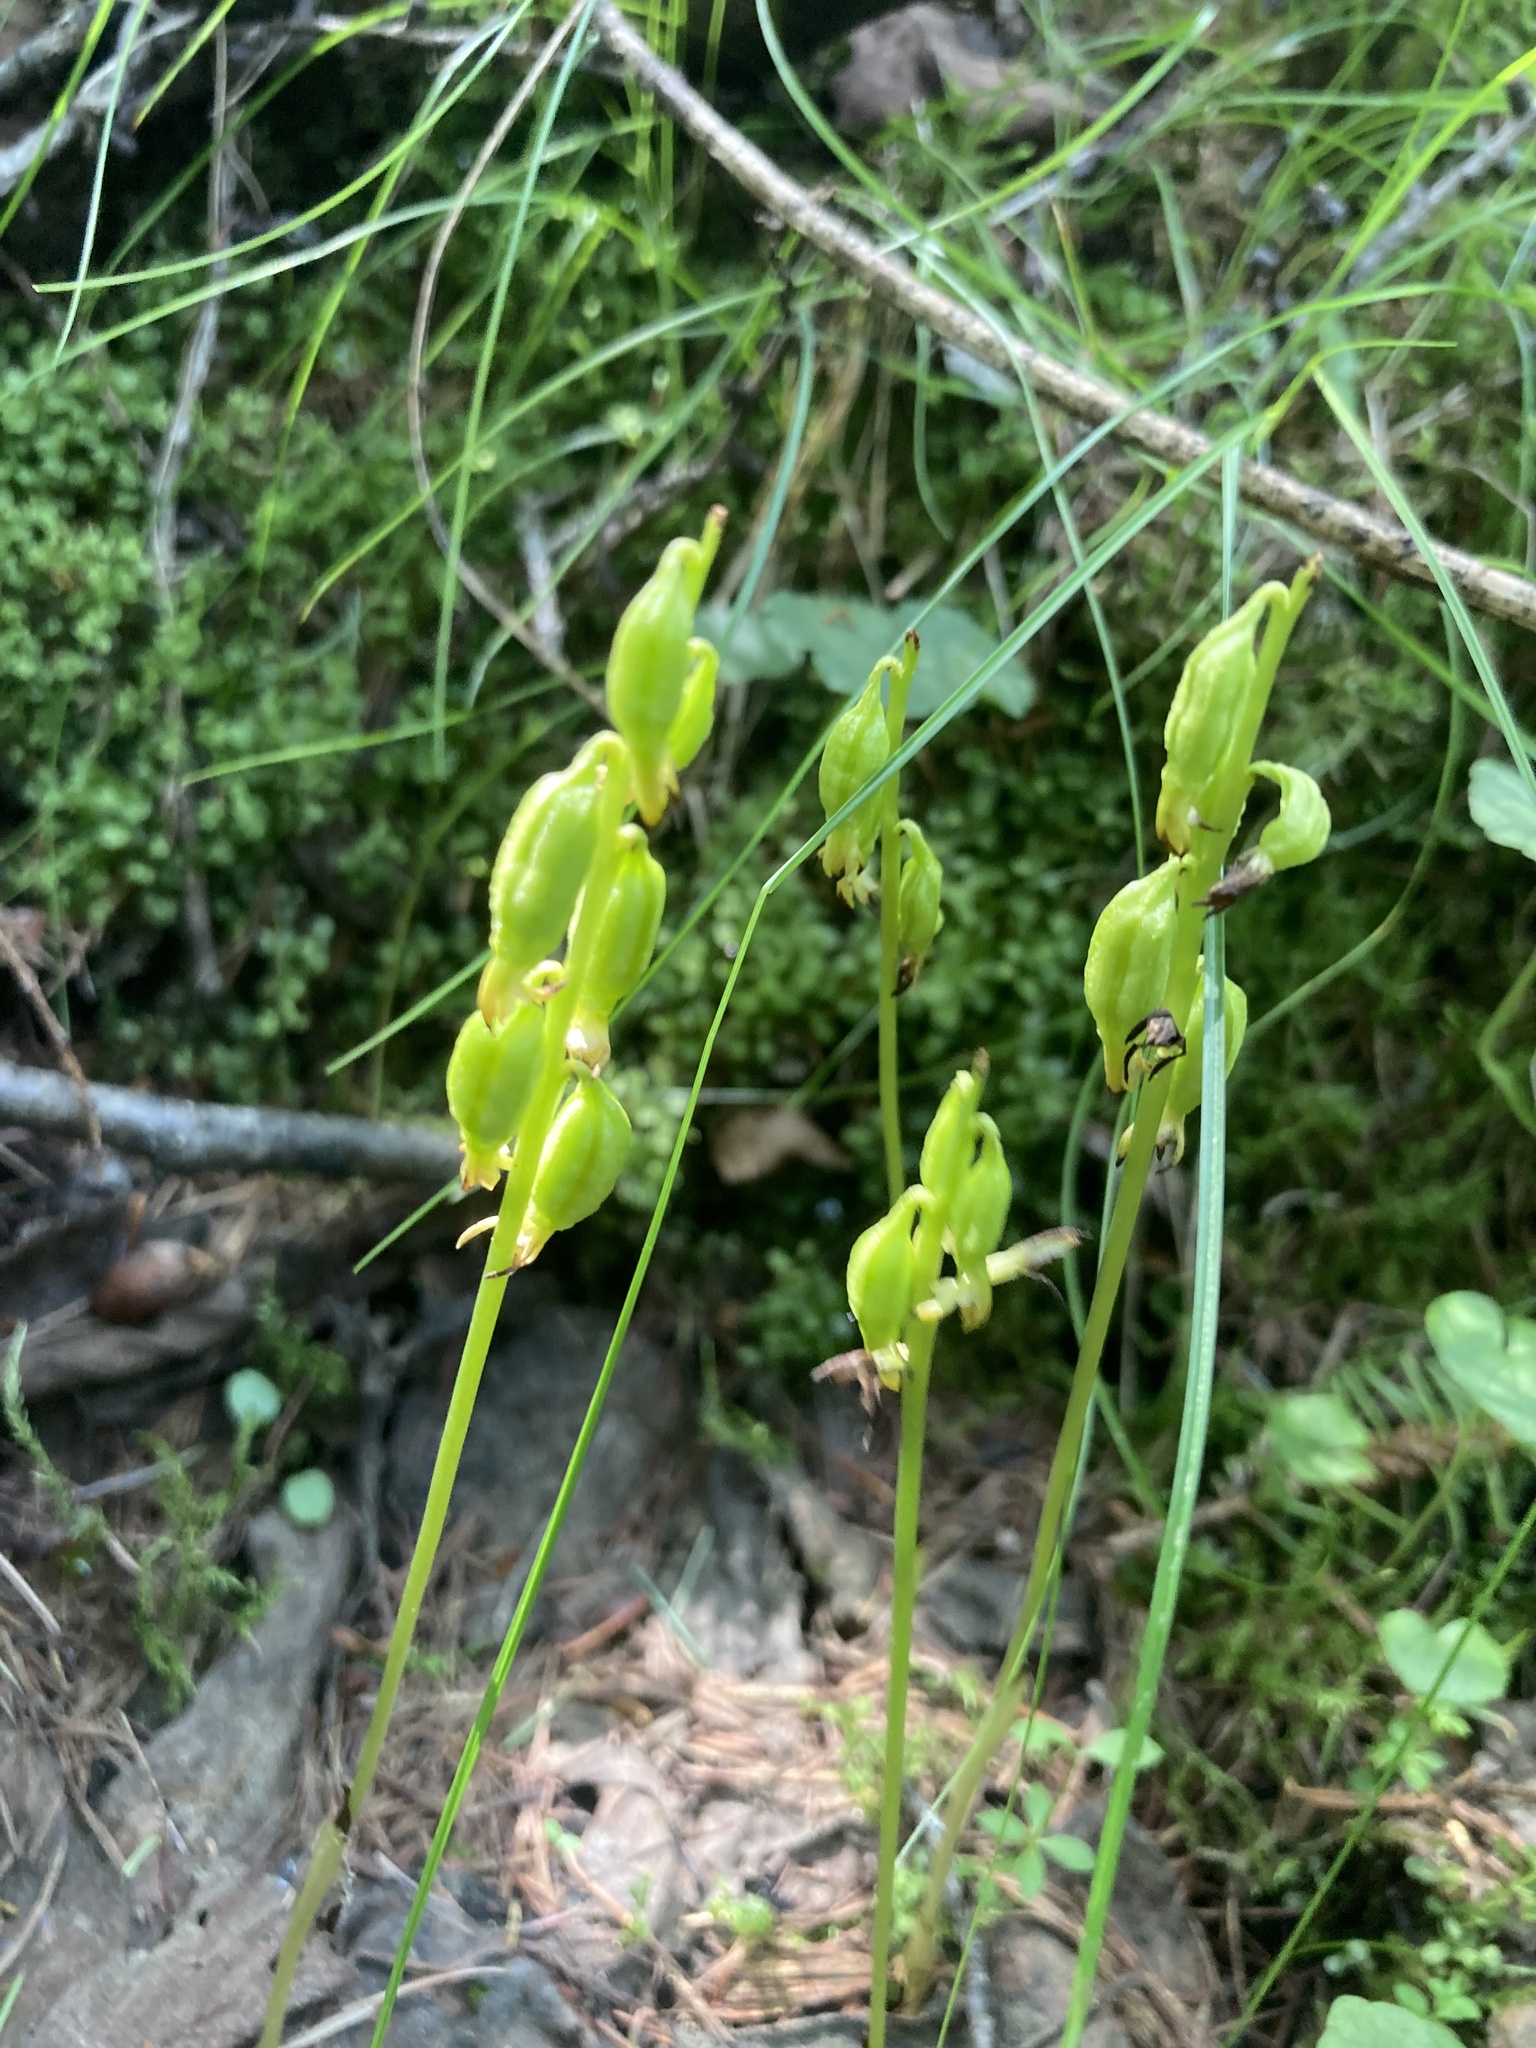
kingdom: Plantae
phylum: Tracheophyta
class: Liliopsida
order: Asparagales
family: Orchidaceae
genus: Corallorhiza
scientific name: Corallorhiza trifida
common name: Yellow coralroot
